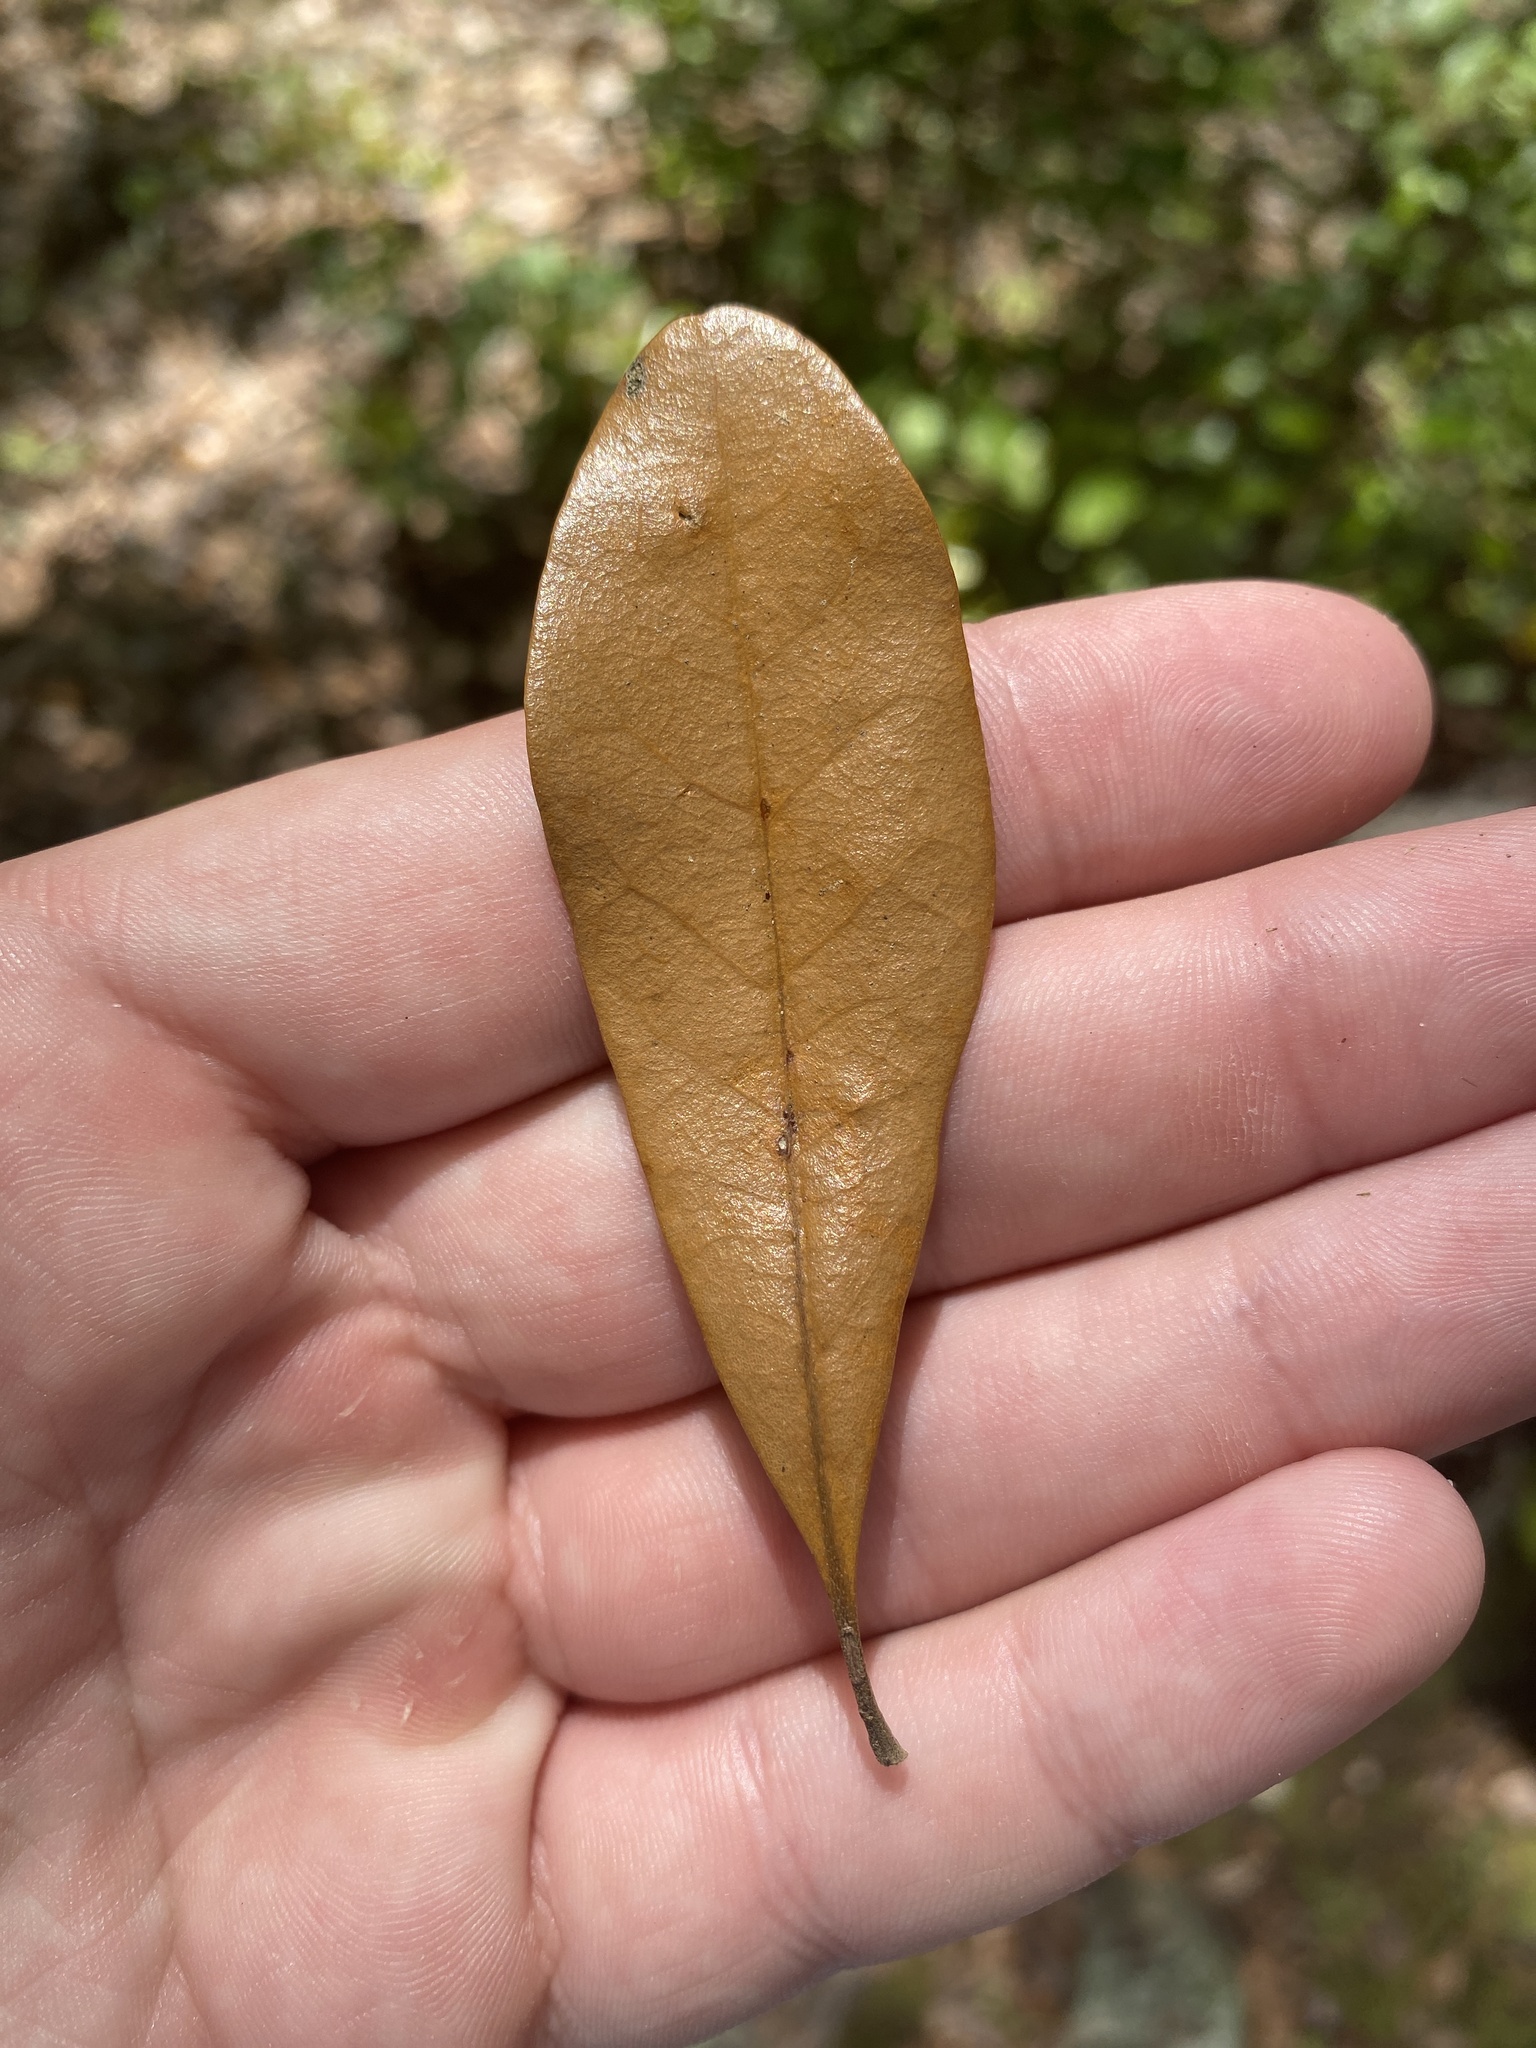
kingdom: Animalia
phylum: Arthropoda
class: Insecta
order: Hymenoptera
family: Cynipidae
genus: Belonocnema
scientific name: Belonocnema treatae
